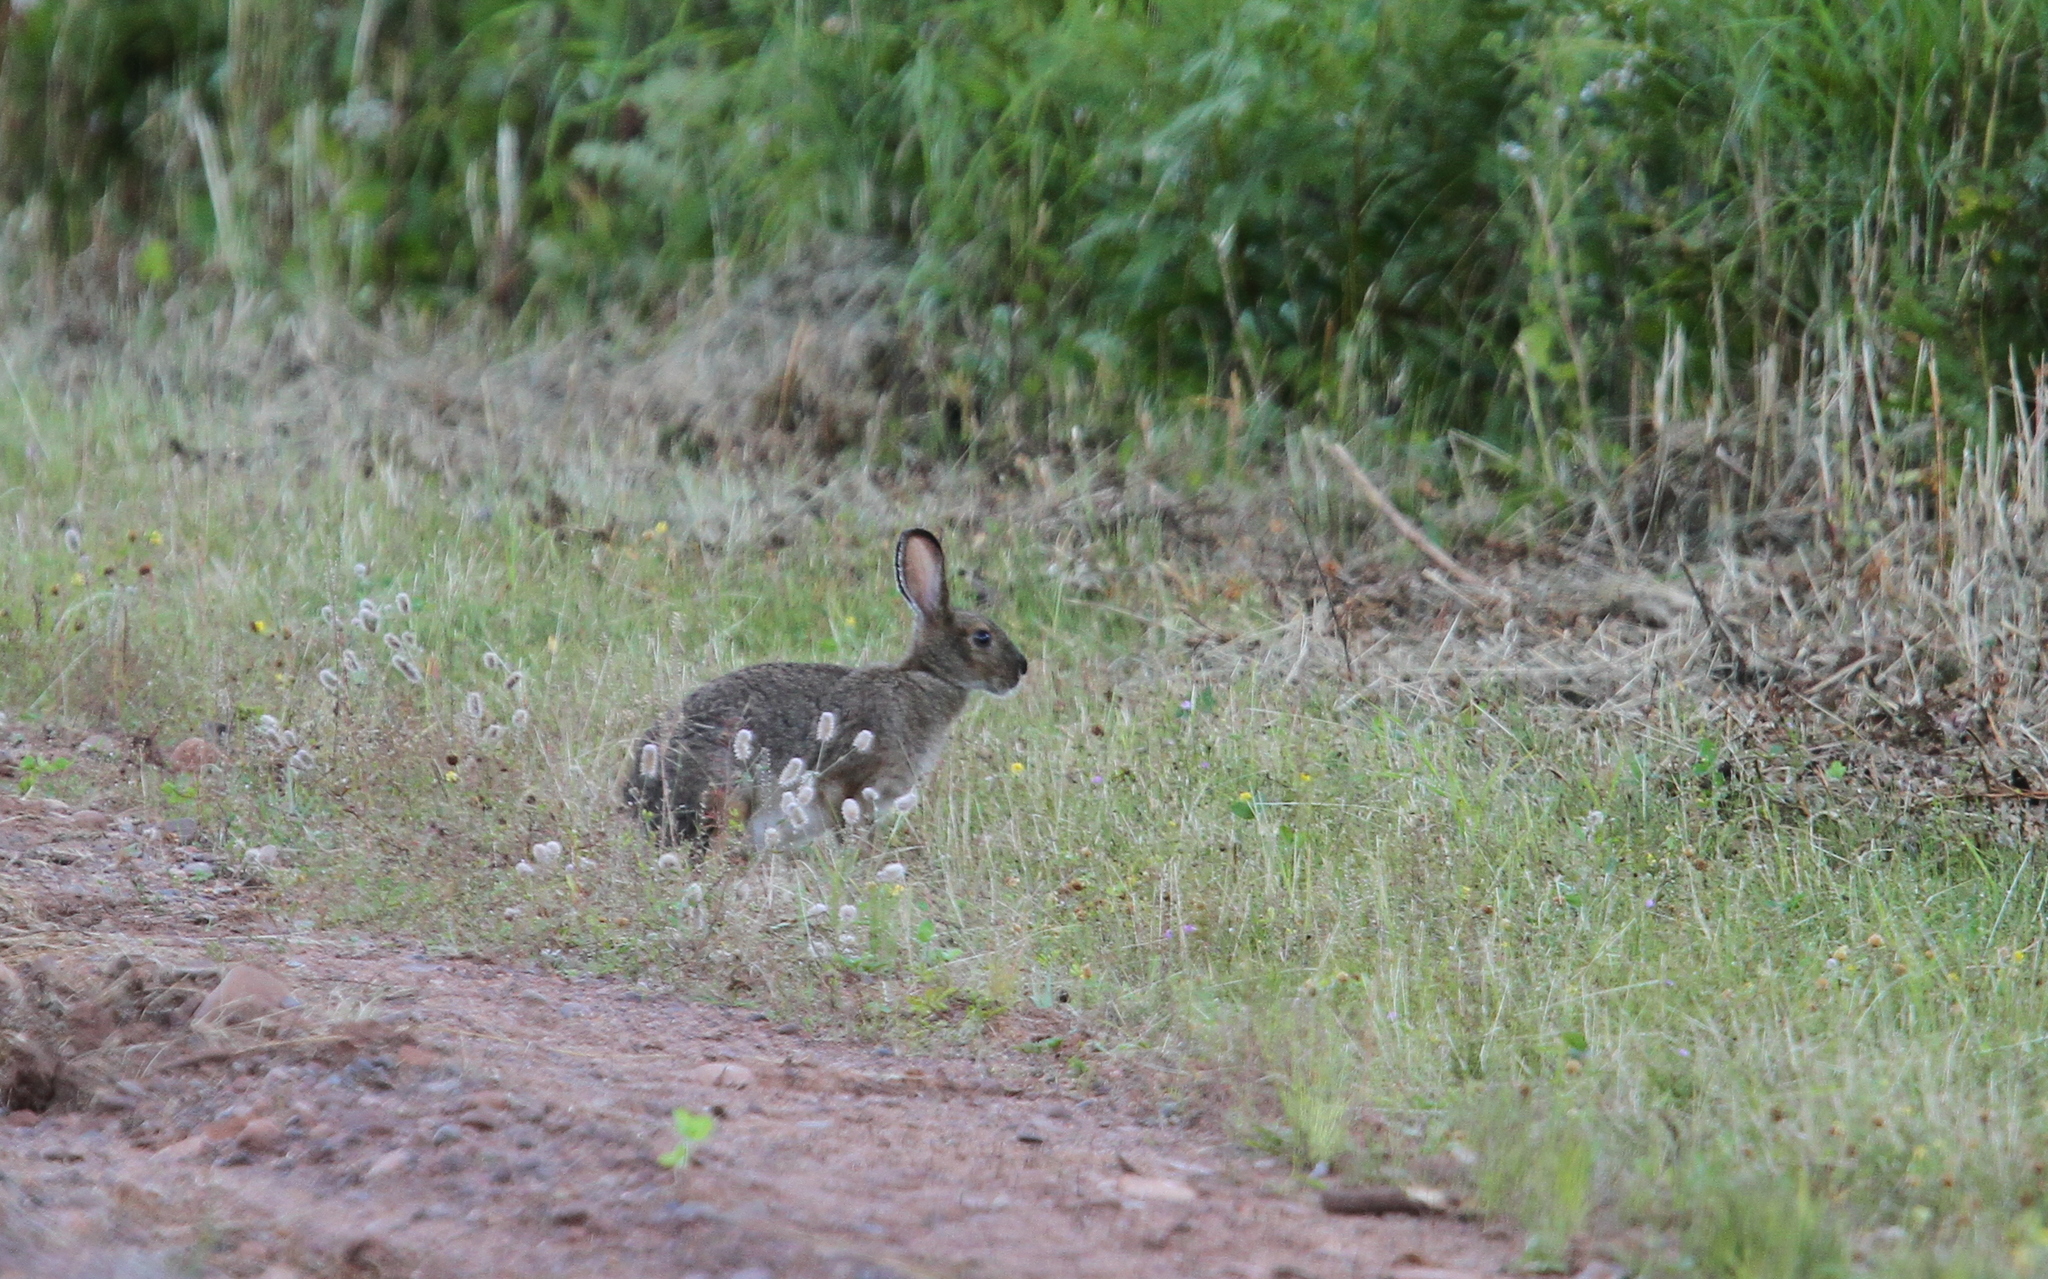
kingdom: Animalia
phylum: Chordata
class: Mammalia
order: Lagomorpha
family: Leporidae
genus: Lepus
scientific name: Lepus americanus
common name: Snowshoe hare
